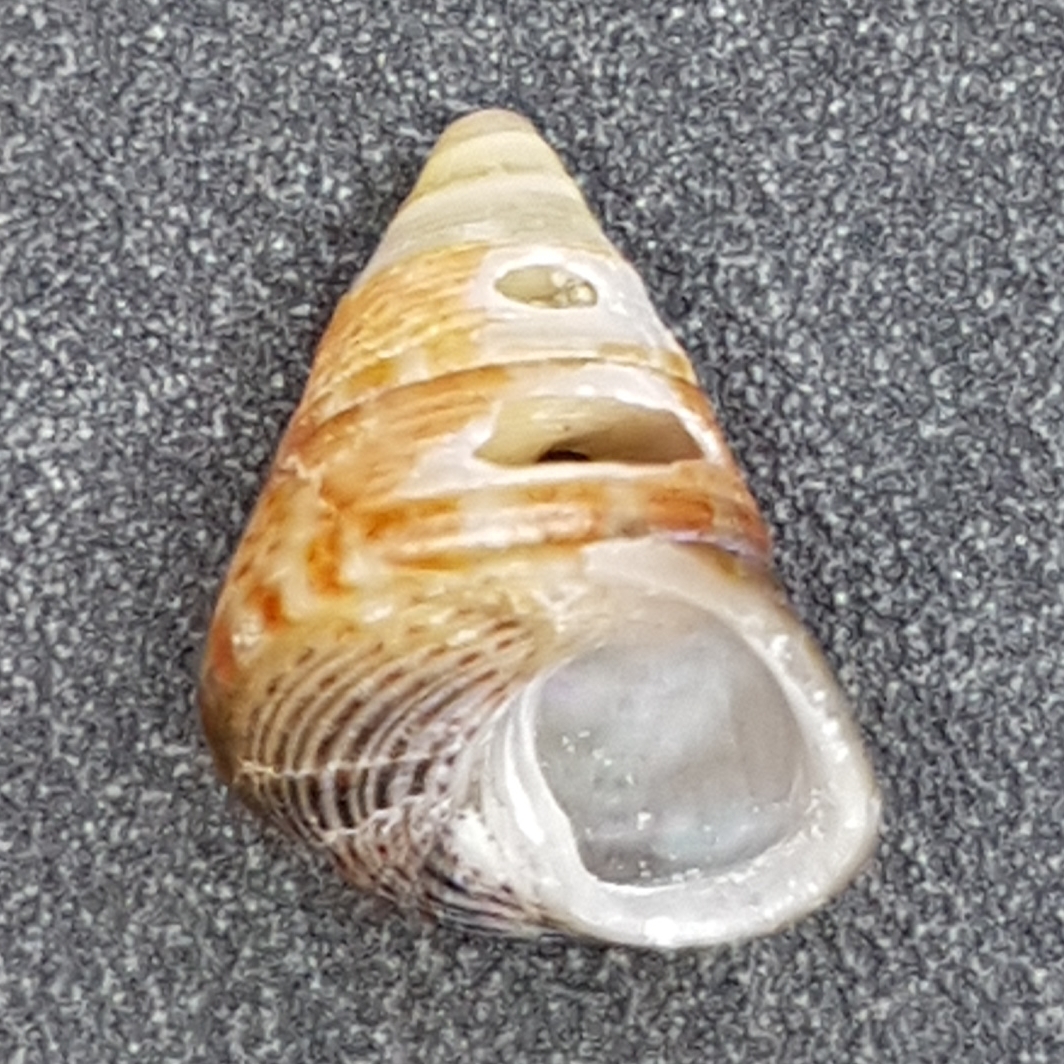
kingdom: Animalia
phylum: Mollusca
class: Gastropoda
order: Trochida
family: Trochidae
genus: Jujubinus
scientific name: Jujubinus striatus
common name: Grooved top shell
